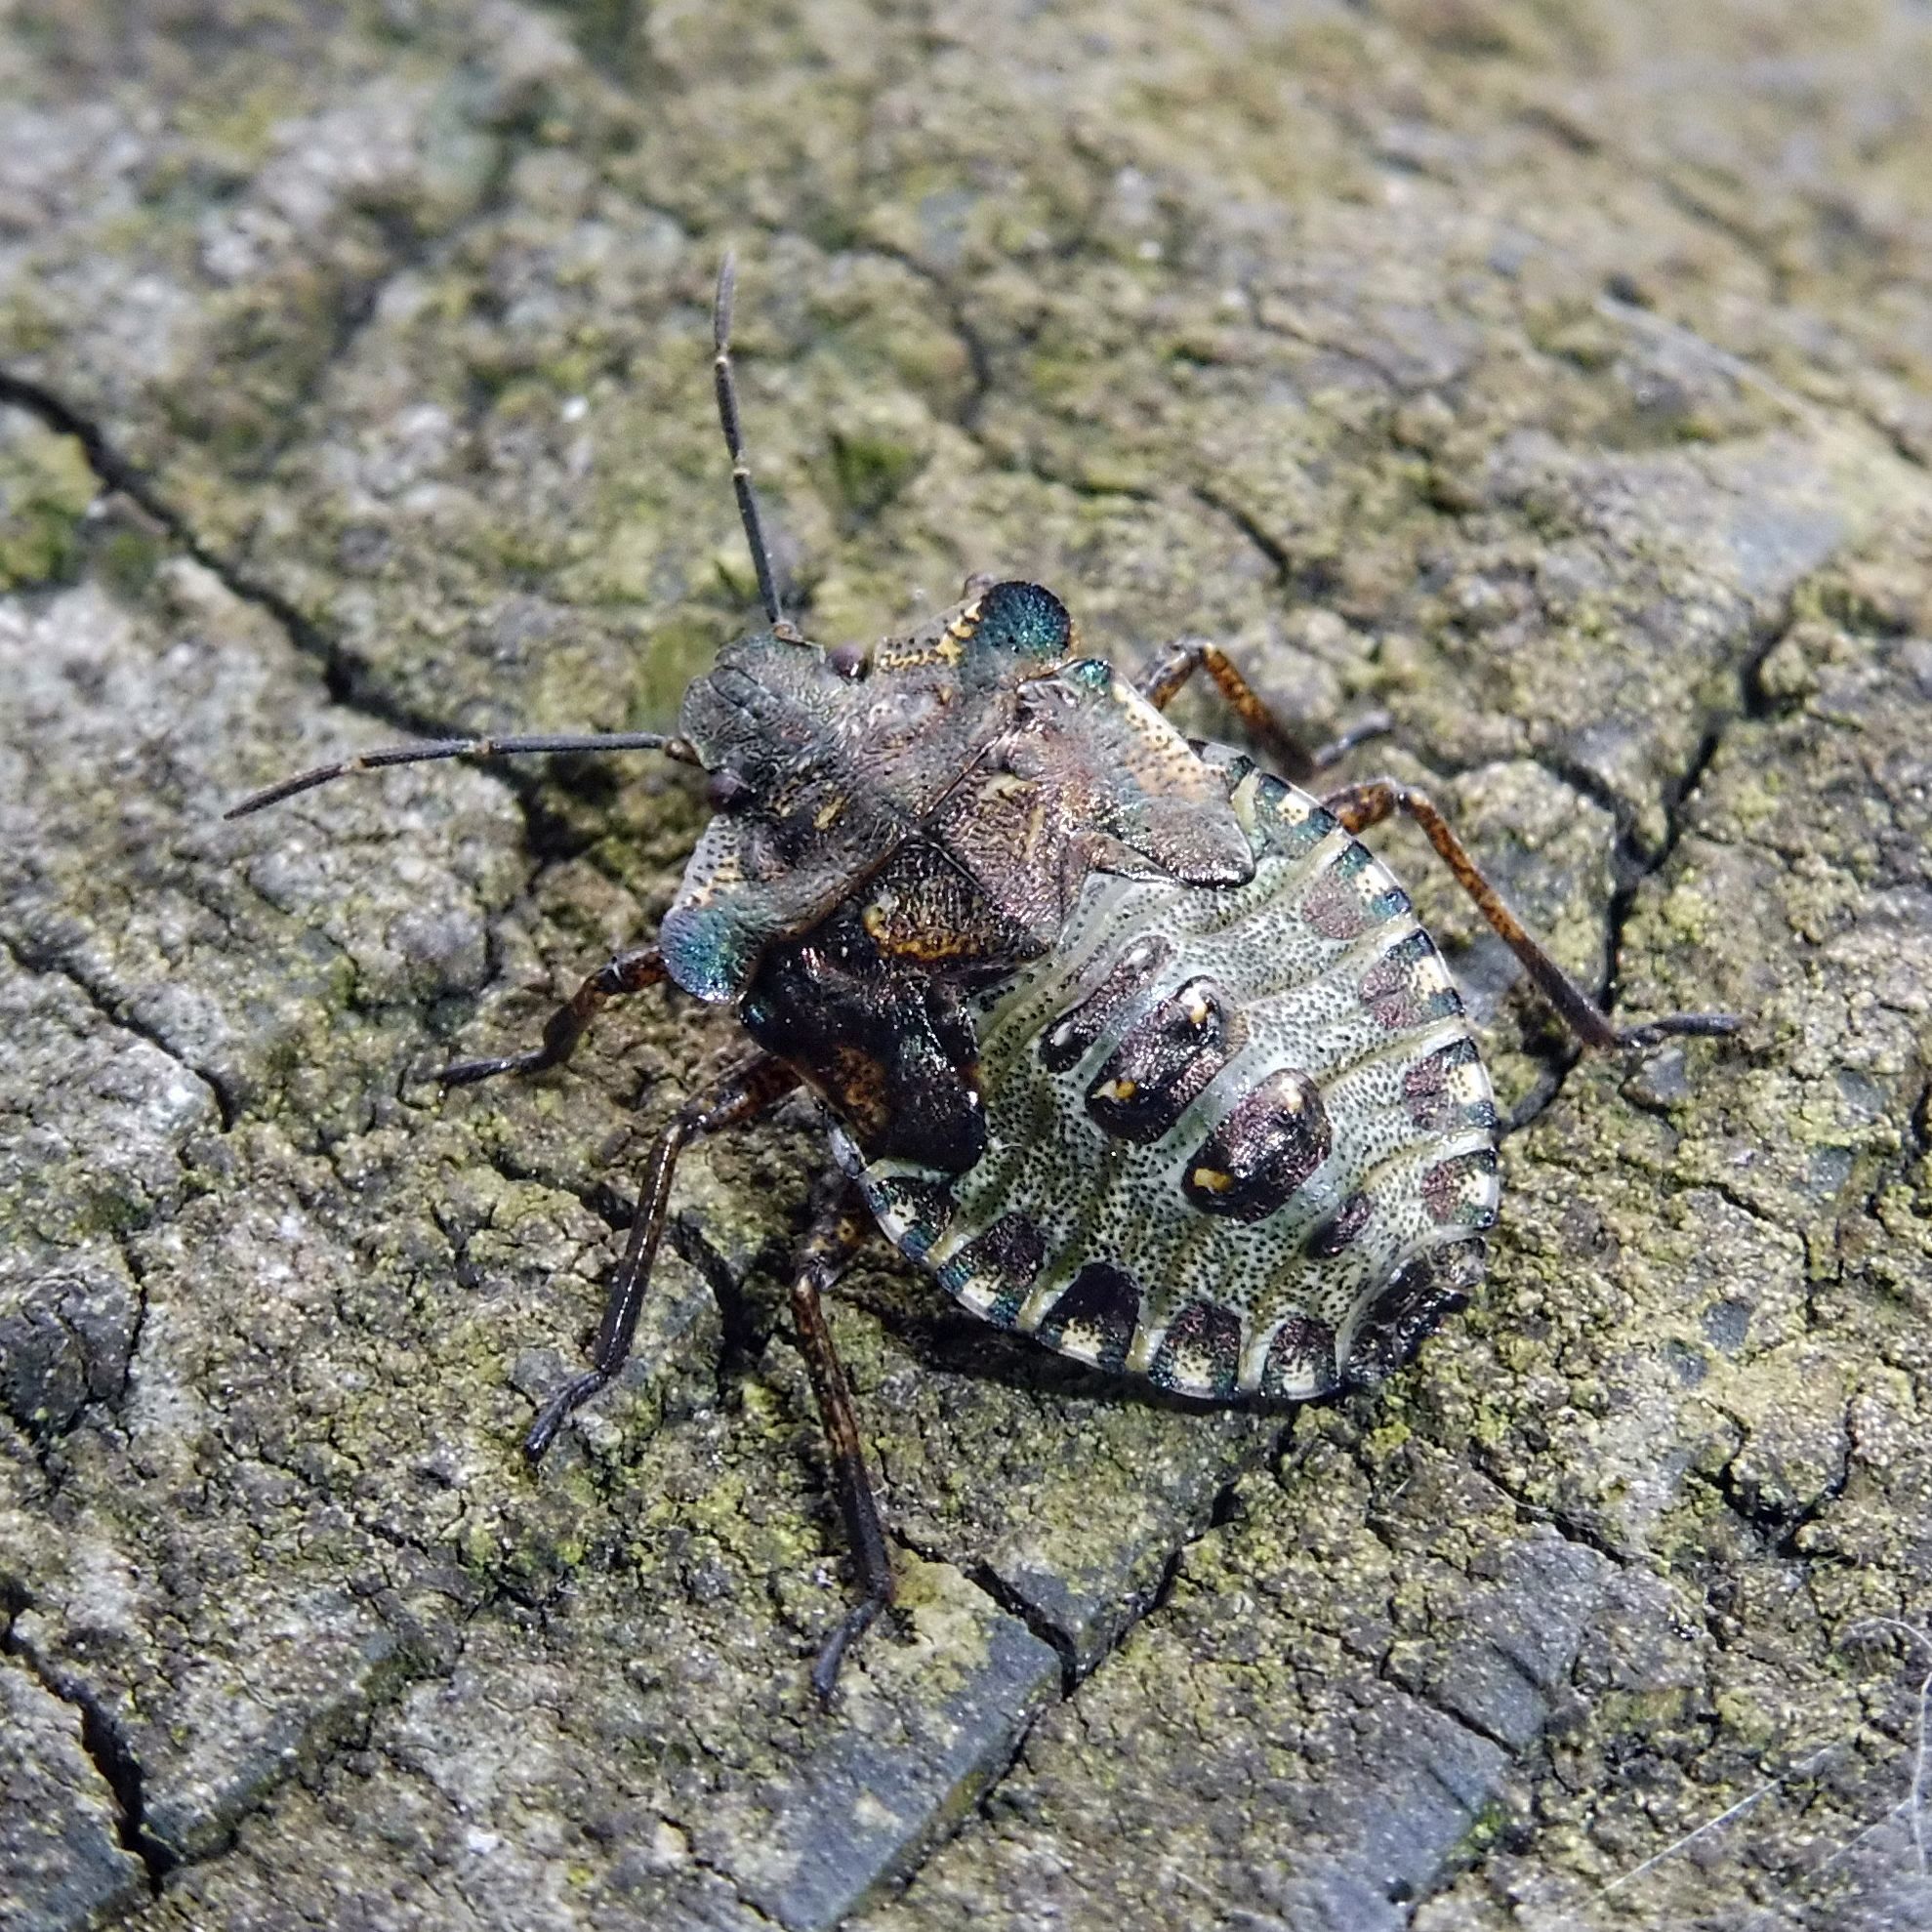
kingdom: Animalia
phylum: Arthropoda
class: Insecta
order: Hemiptera
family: Pentatomidae
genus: Pentatoma
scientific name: Pentatoma rufipes
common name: Forest bug
